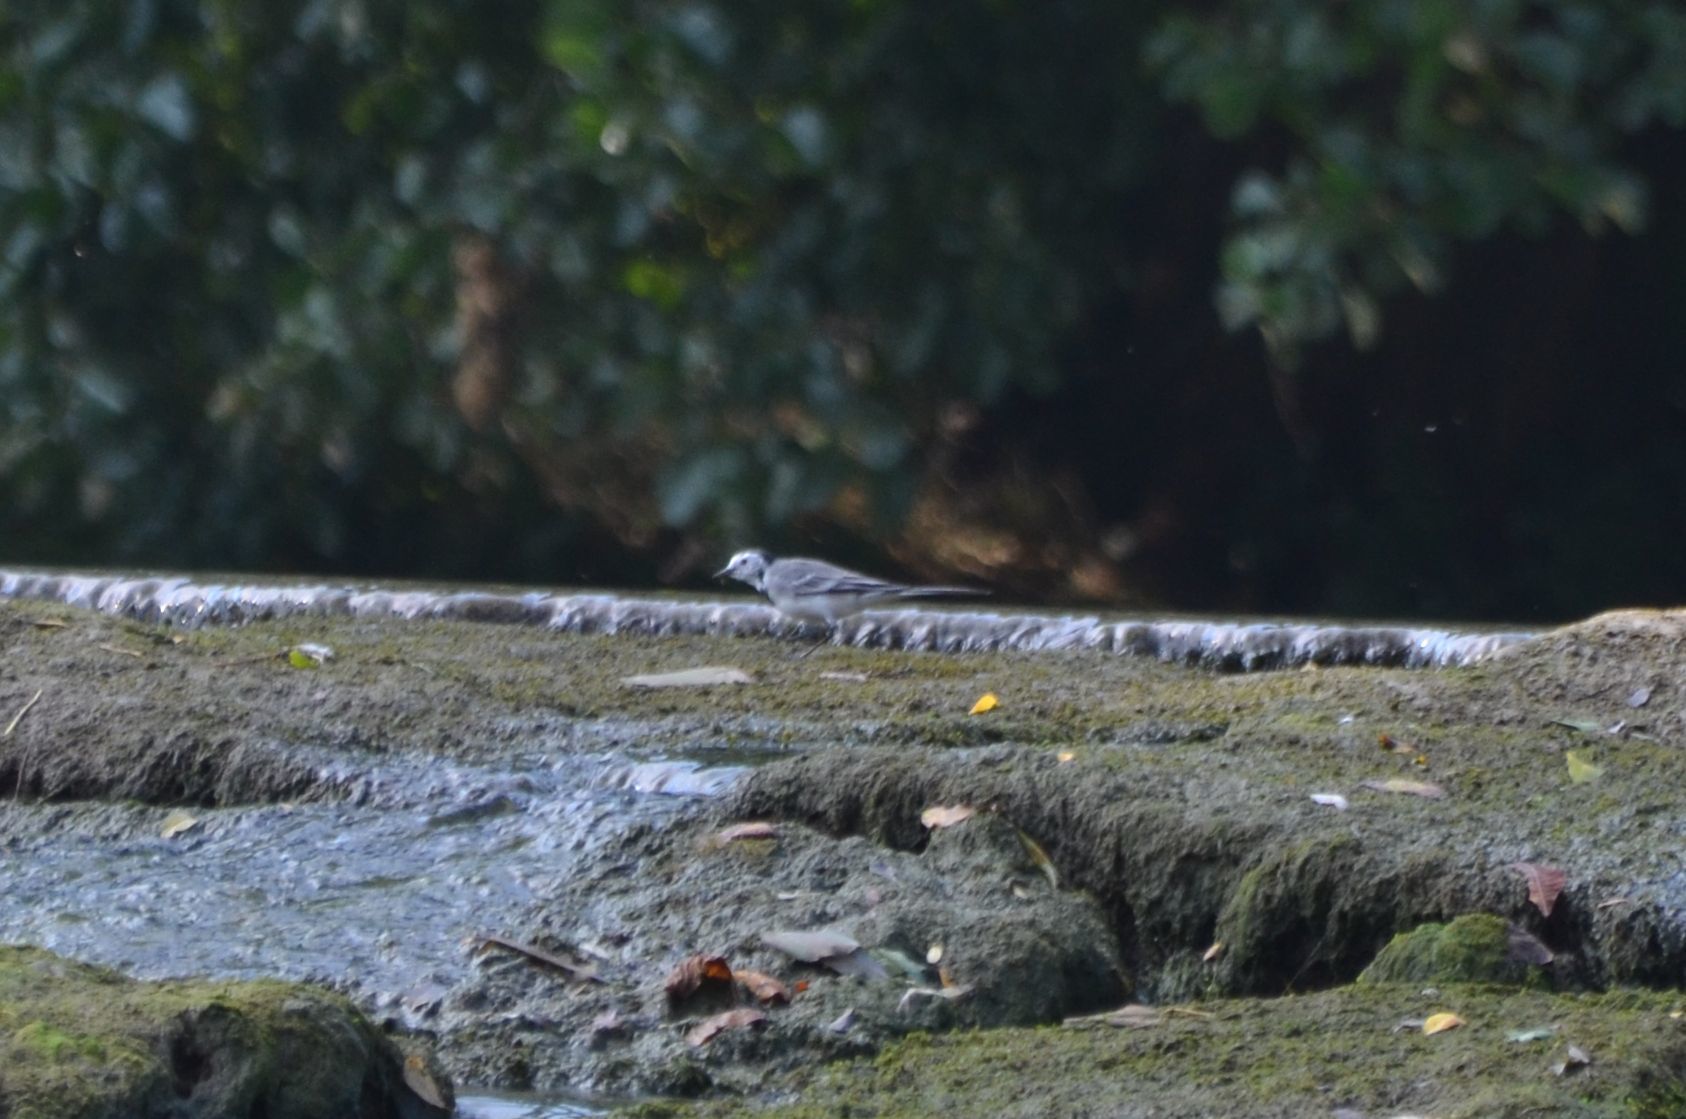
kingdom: Animalia
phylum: Chordata
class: Aves
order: Passeriformes
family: Motacillidae
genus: Motacilla
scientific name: Motacilla alba
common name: White wagtail
